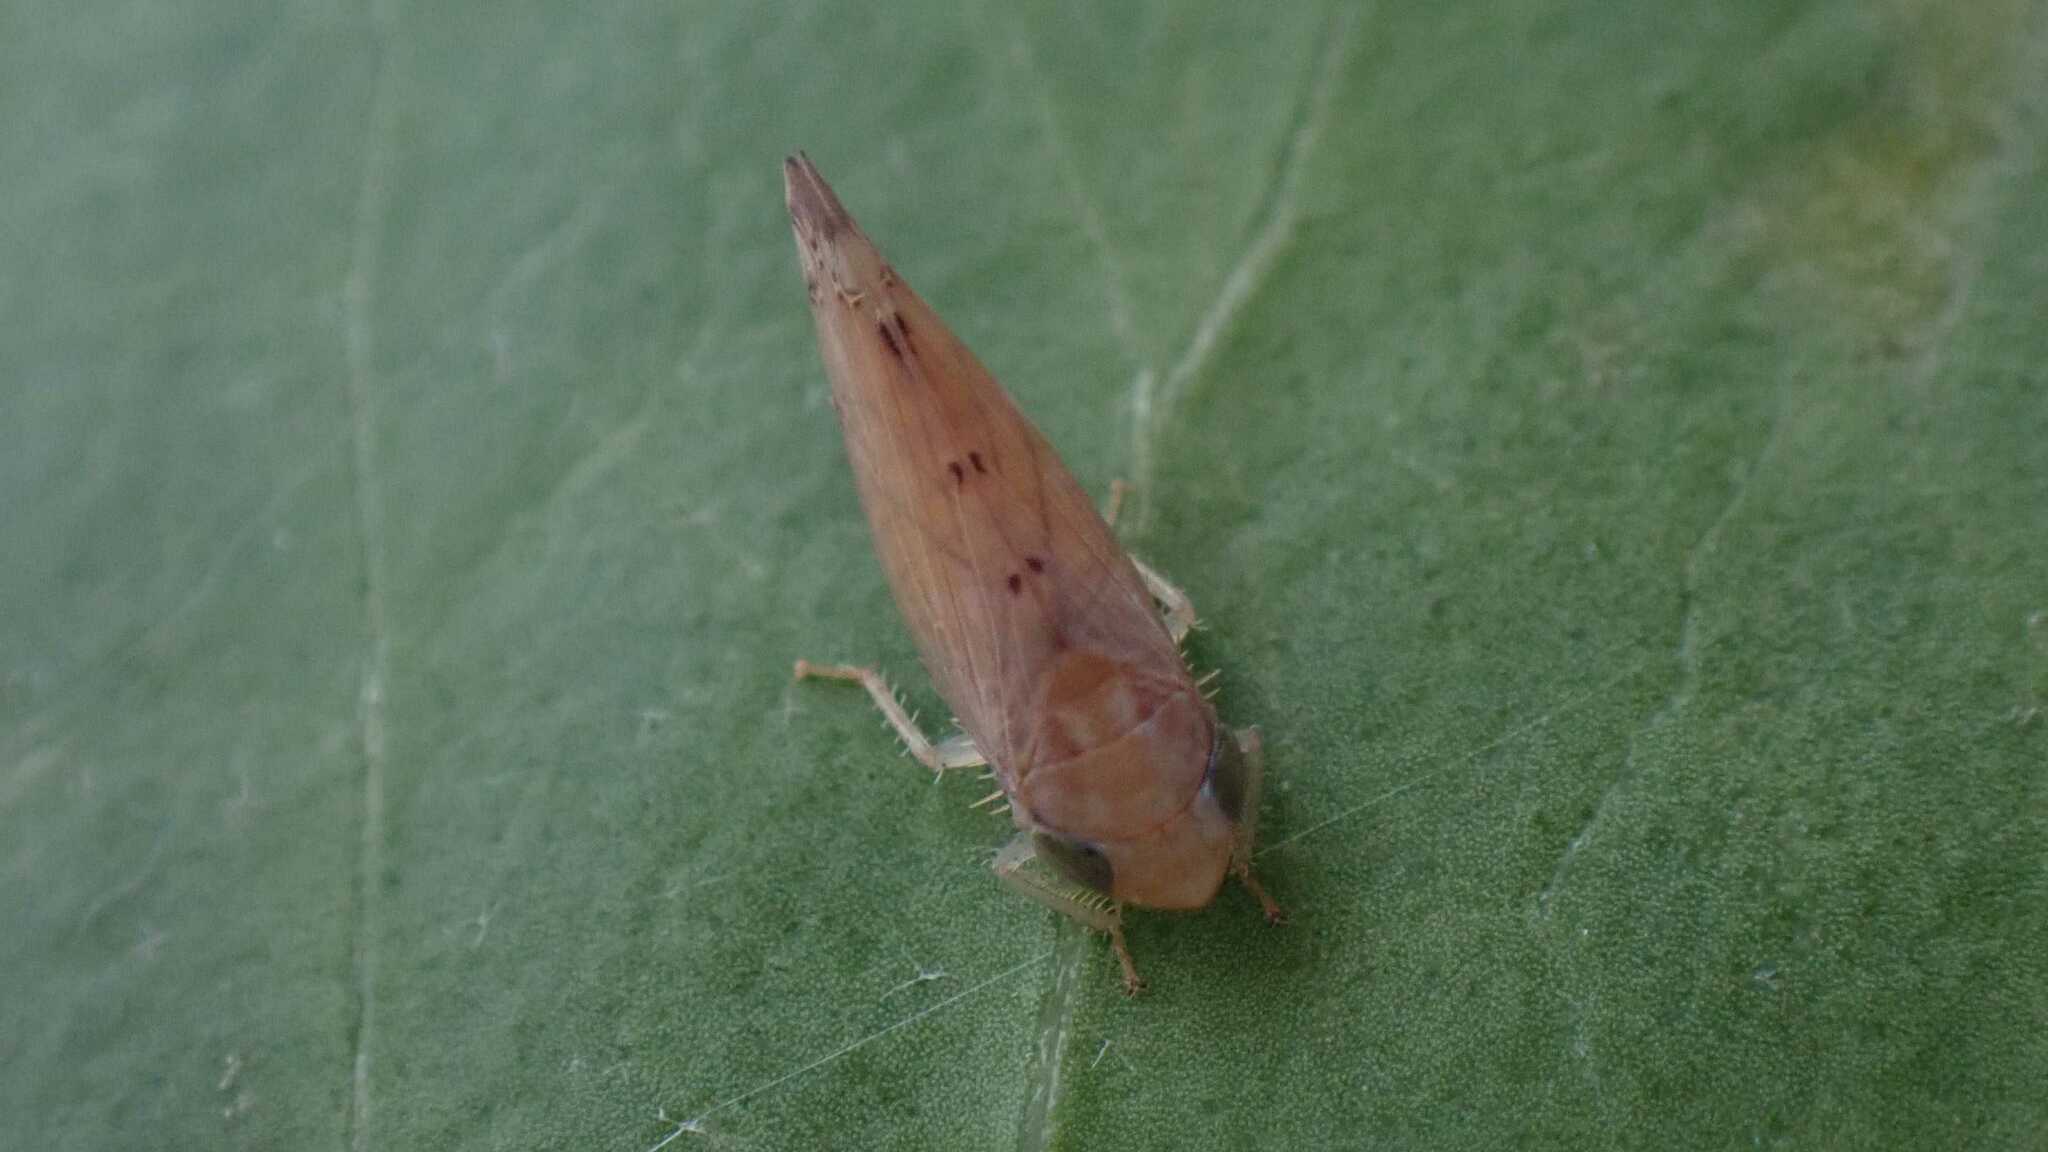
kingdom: Animalia
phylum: Arthropoda
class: Insecta
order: Hemiptera
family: Cicadellidae
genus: Synophropsis
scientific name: Synophropsis lauri
